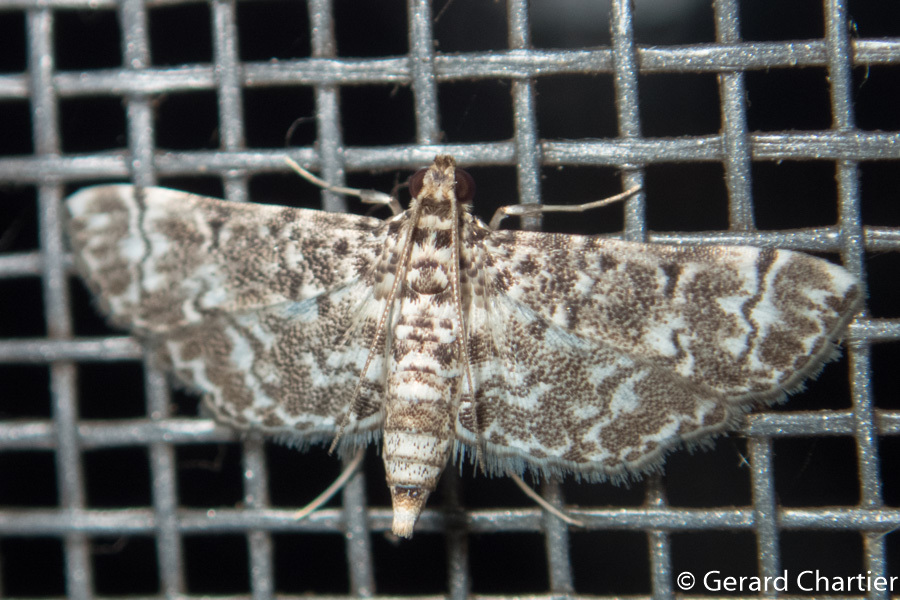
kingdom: Animalia
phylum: Arthropoda
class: Insecta
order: Lepidoptera
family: Crambidae
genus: Metoeca
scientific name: Metoeca foedalis
